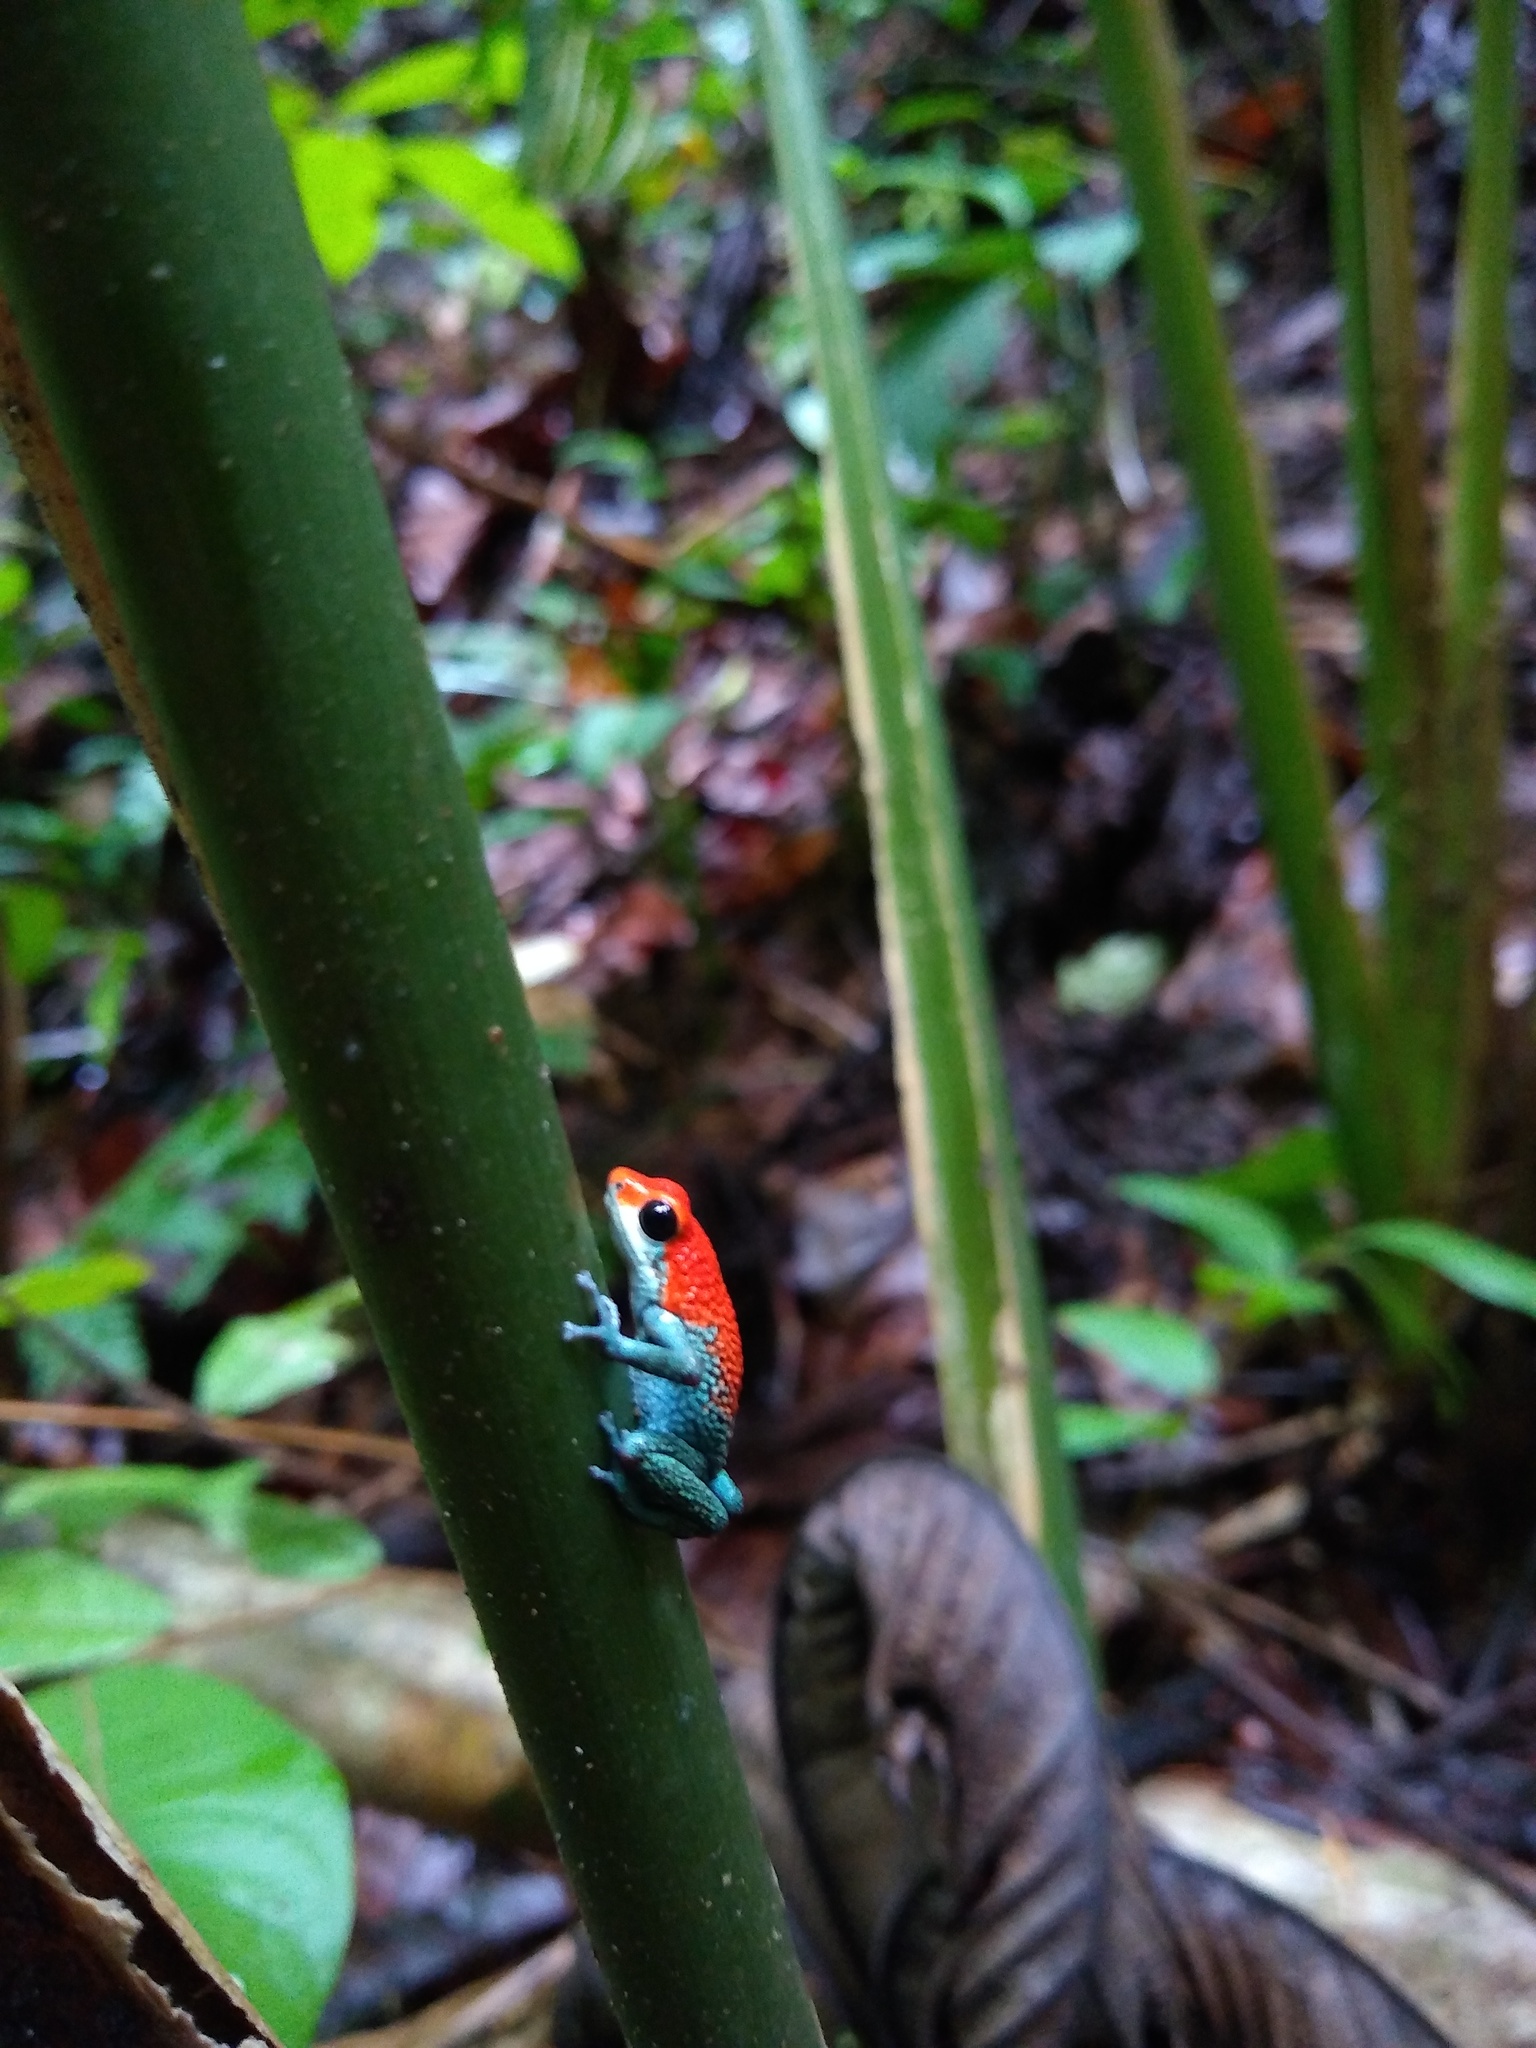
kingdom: Animalia
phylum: Chordata
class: Amphibia
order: Anura
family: Dendrobatidae
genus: Oophaga
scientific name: Oophaga granulifera
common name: Granular poison frog
